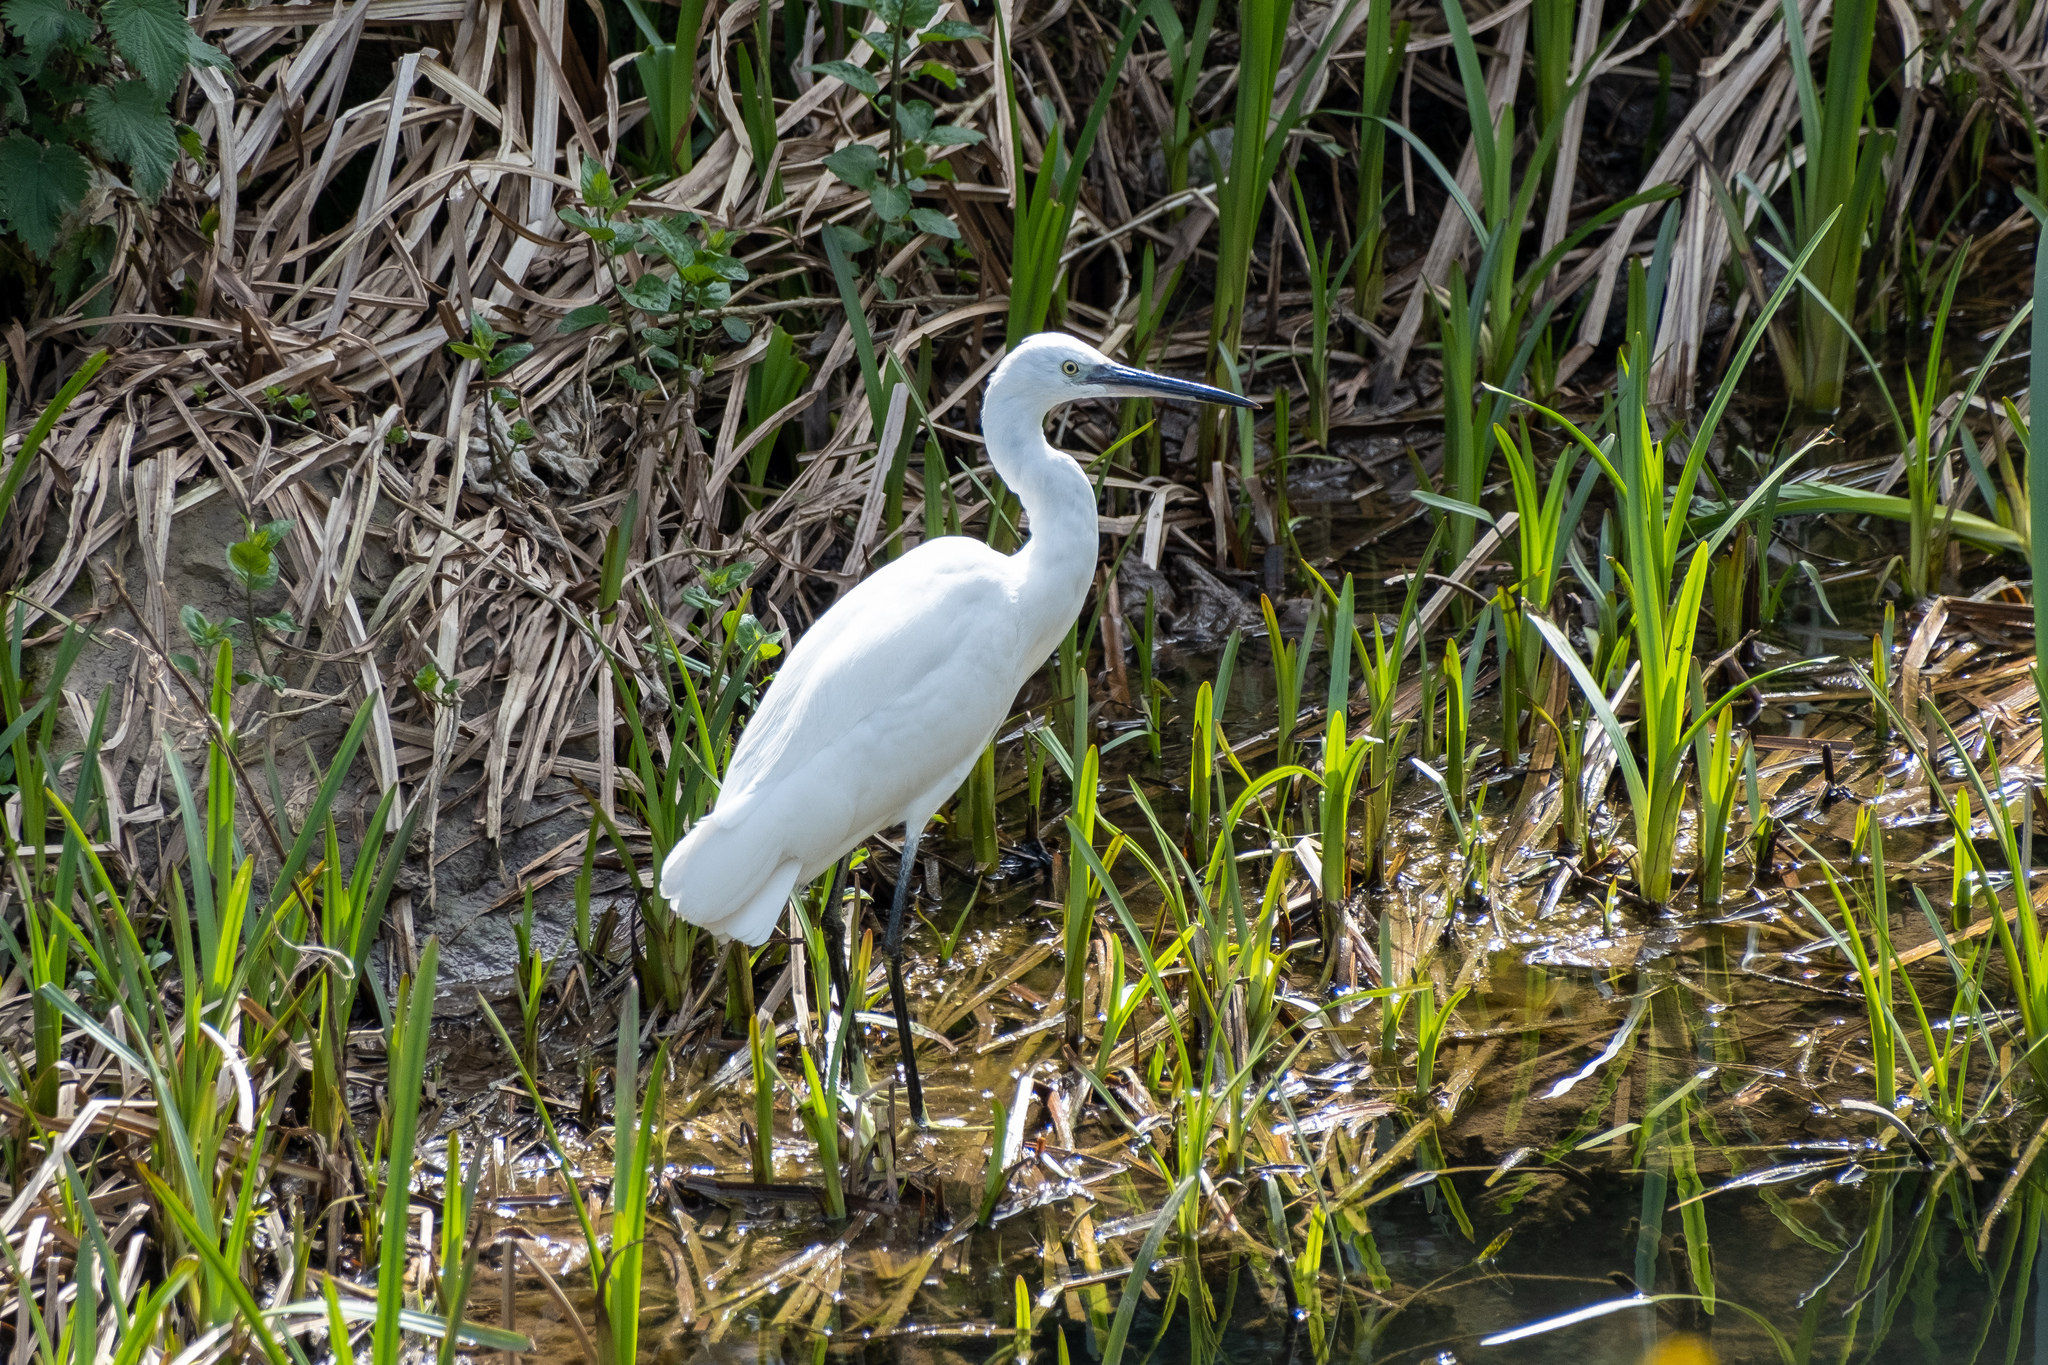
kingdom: Animalia
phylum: Chordata
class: Aves
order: Pelecaniformes
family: Ardeidae
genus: Egretta
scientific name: Egretta garzetta
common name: Little egret
